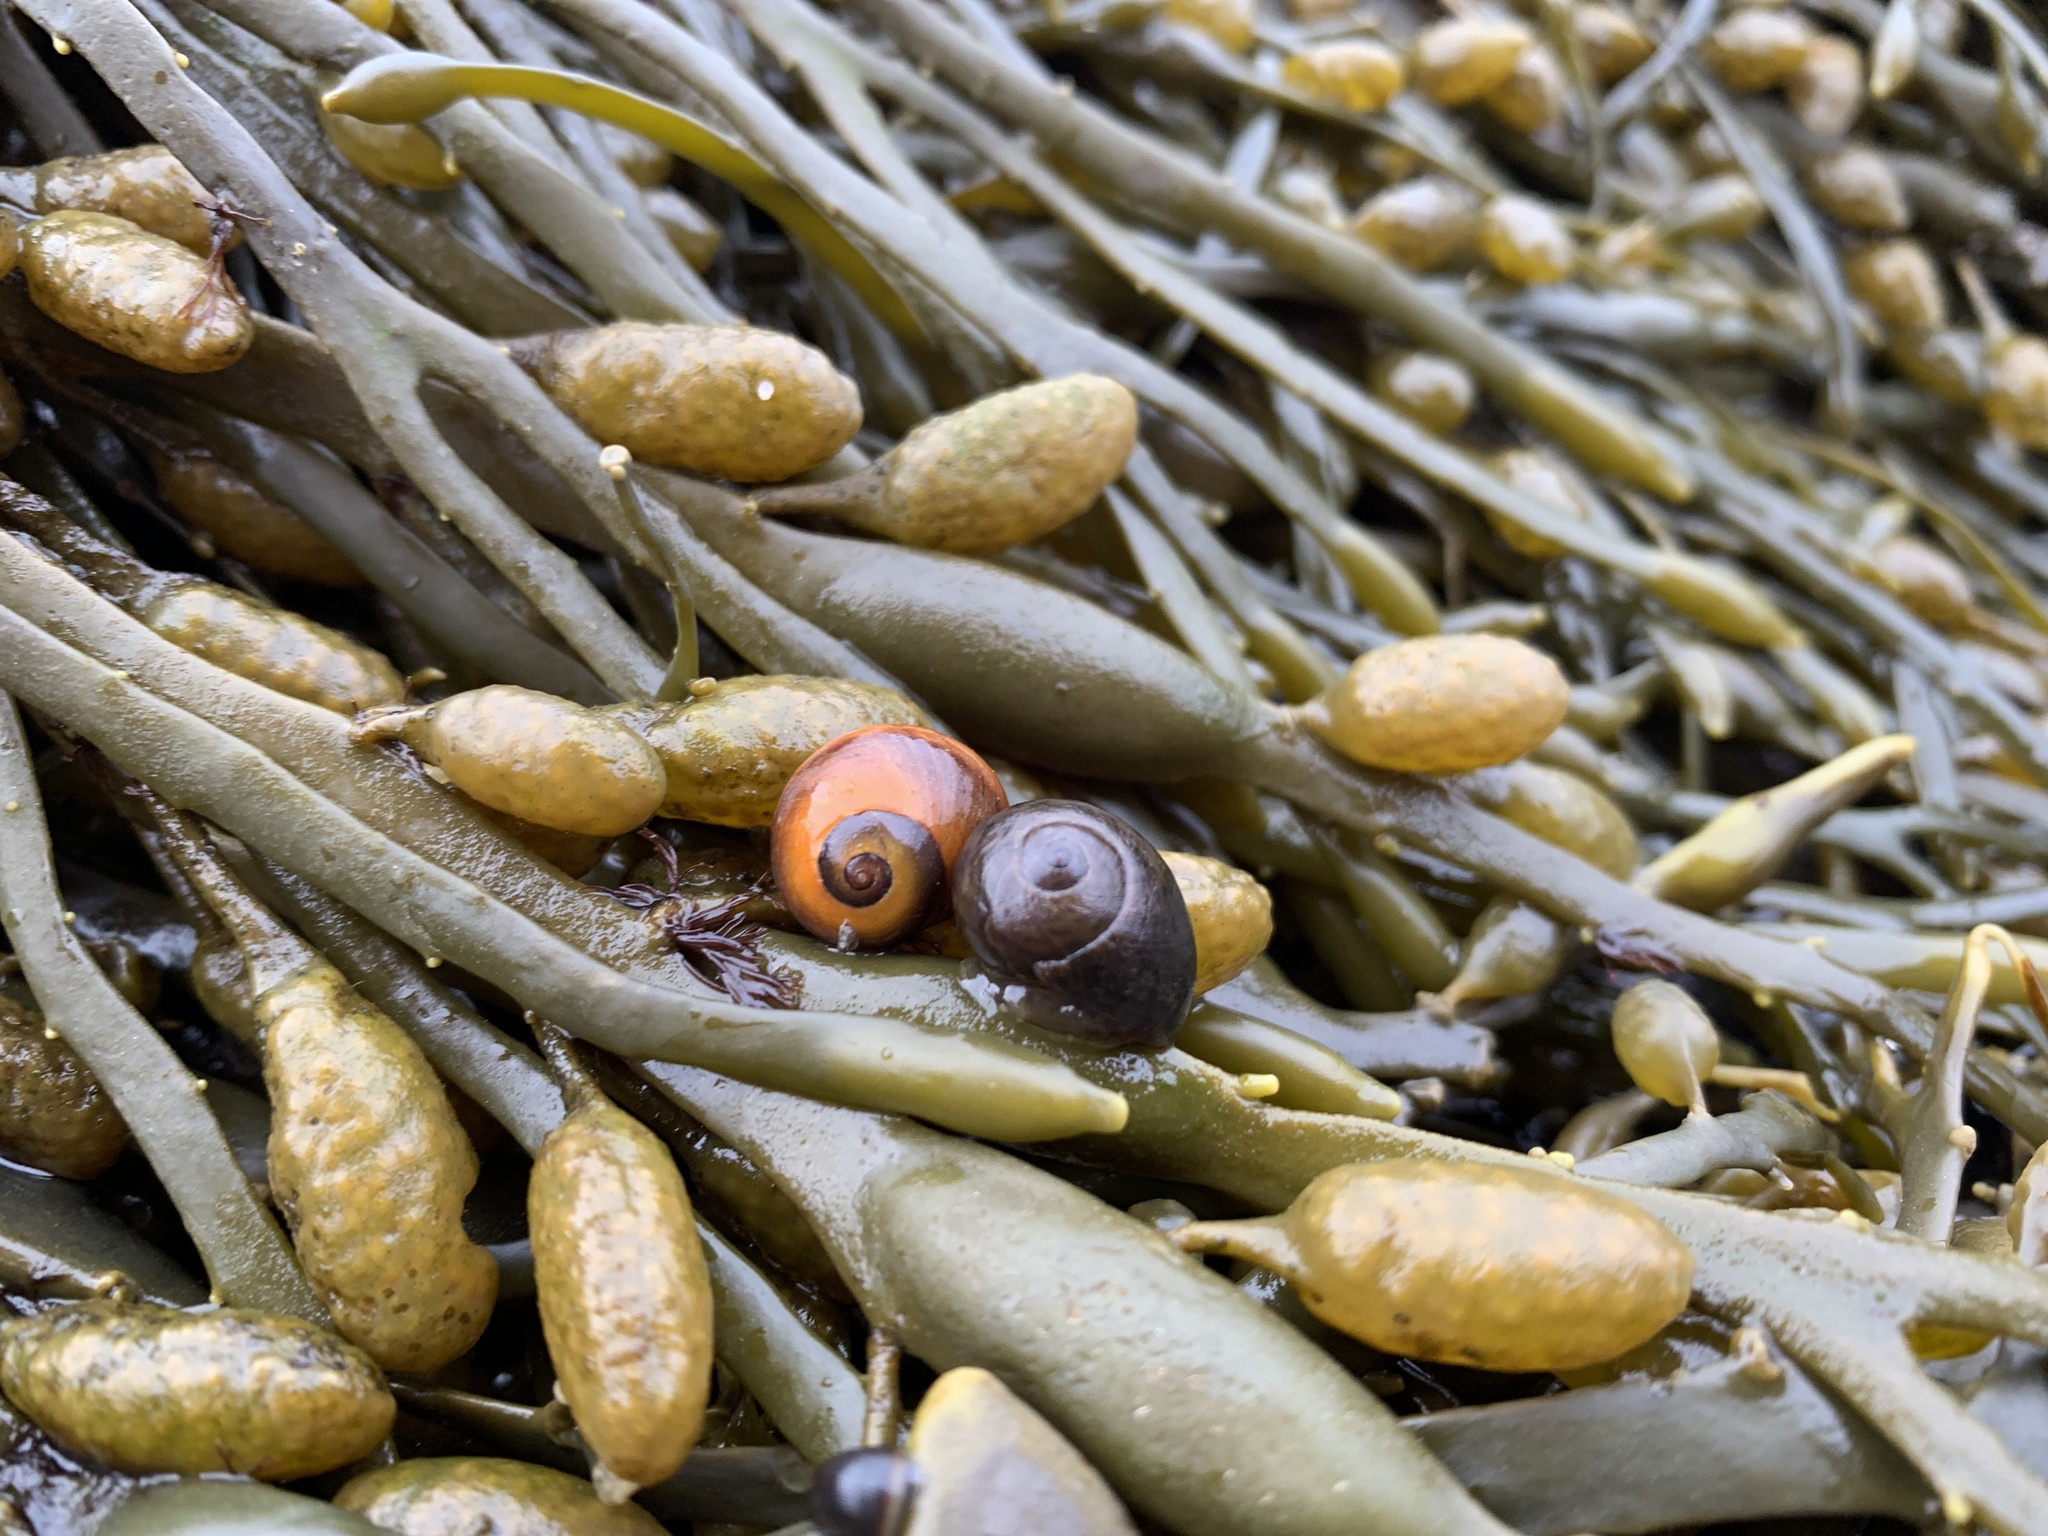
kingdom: Animalia
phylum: Mollusca
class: Gastropoda
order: Littorinimorpha
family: Littorinidae
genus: Littorina
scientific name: Littorina obtusata
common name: Flat periwinkle
